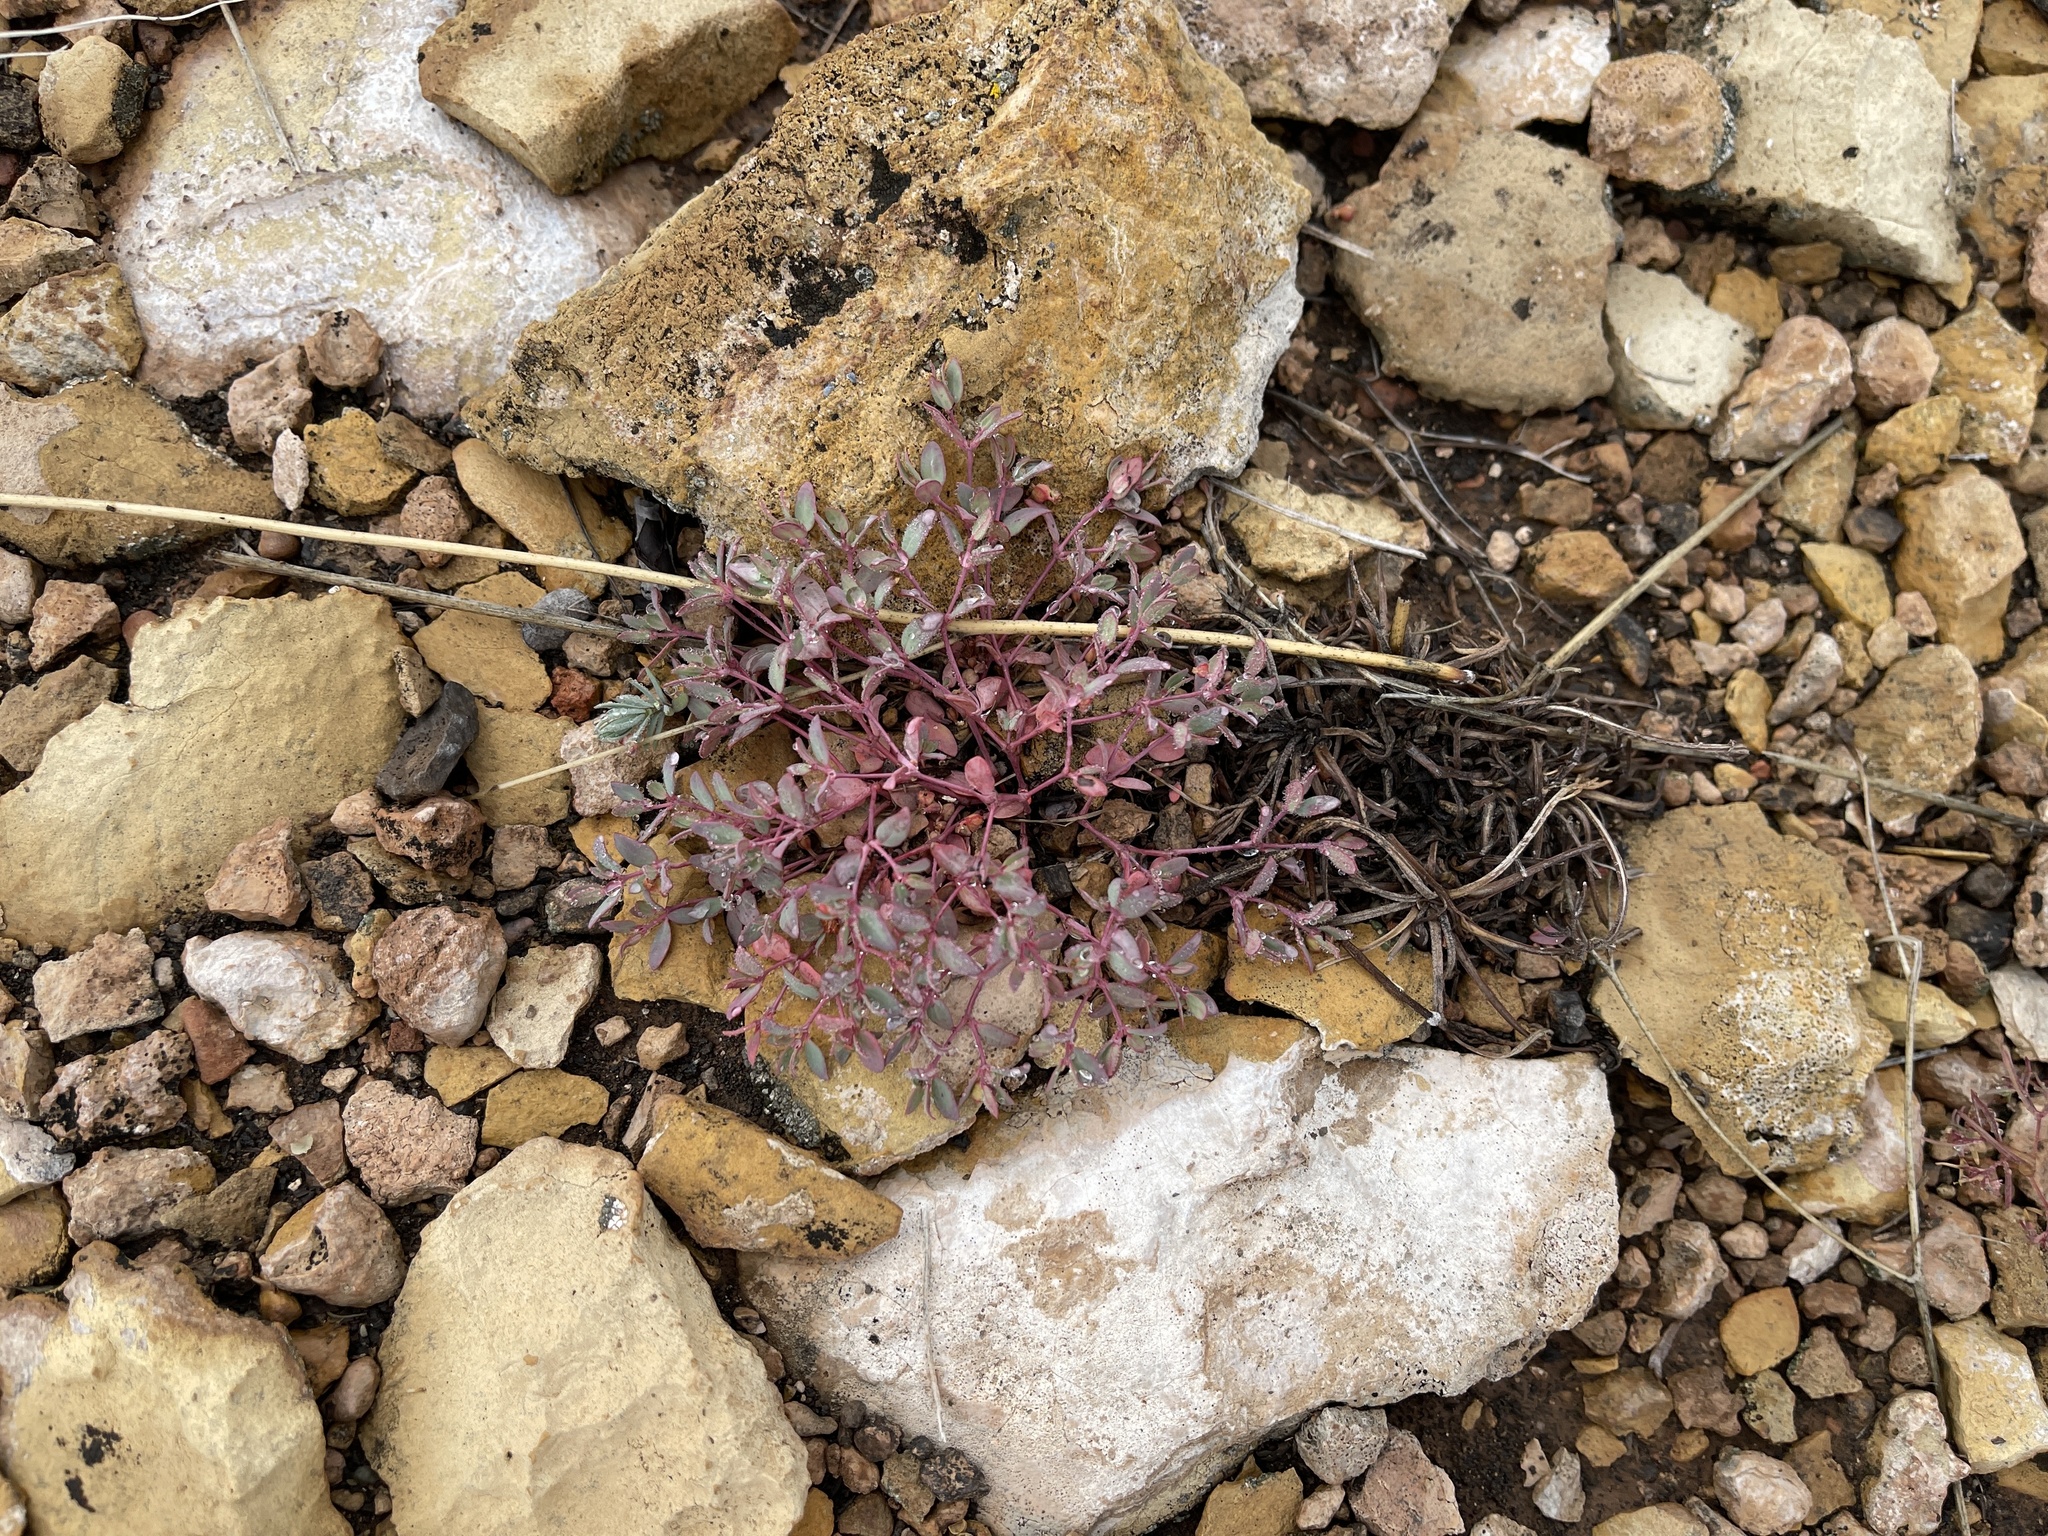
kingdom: Plantae
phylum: Tracheophyta
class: Magnoliopsida
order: Malpighiales
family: Euphorbiaceae
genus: Euphorbia
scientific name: Euphorbia fendleri
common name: Fendler's euphorbia
